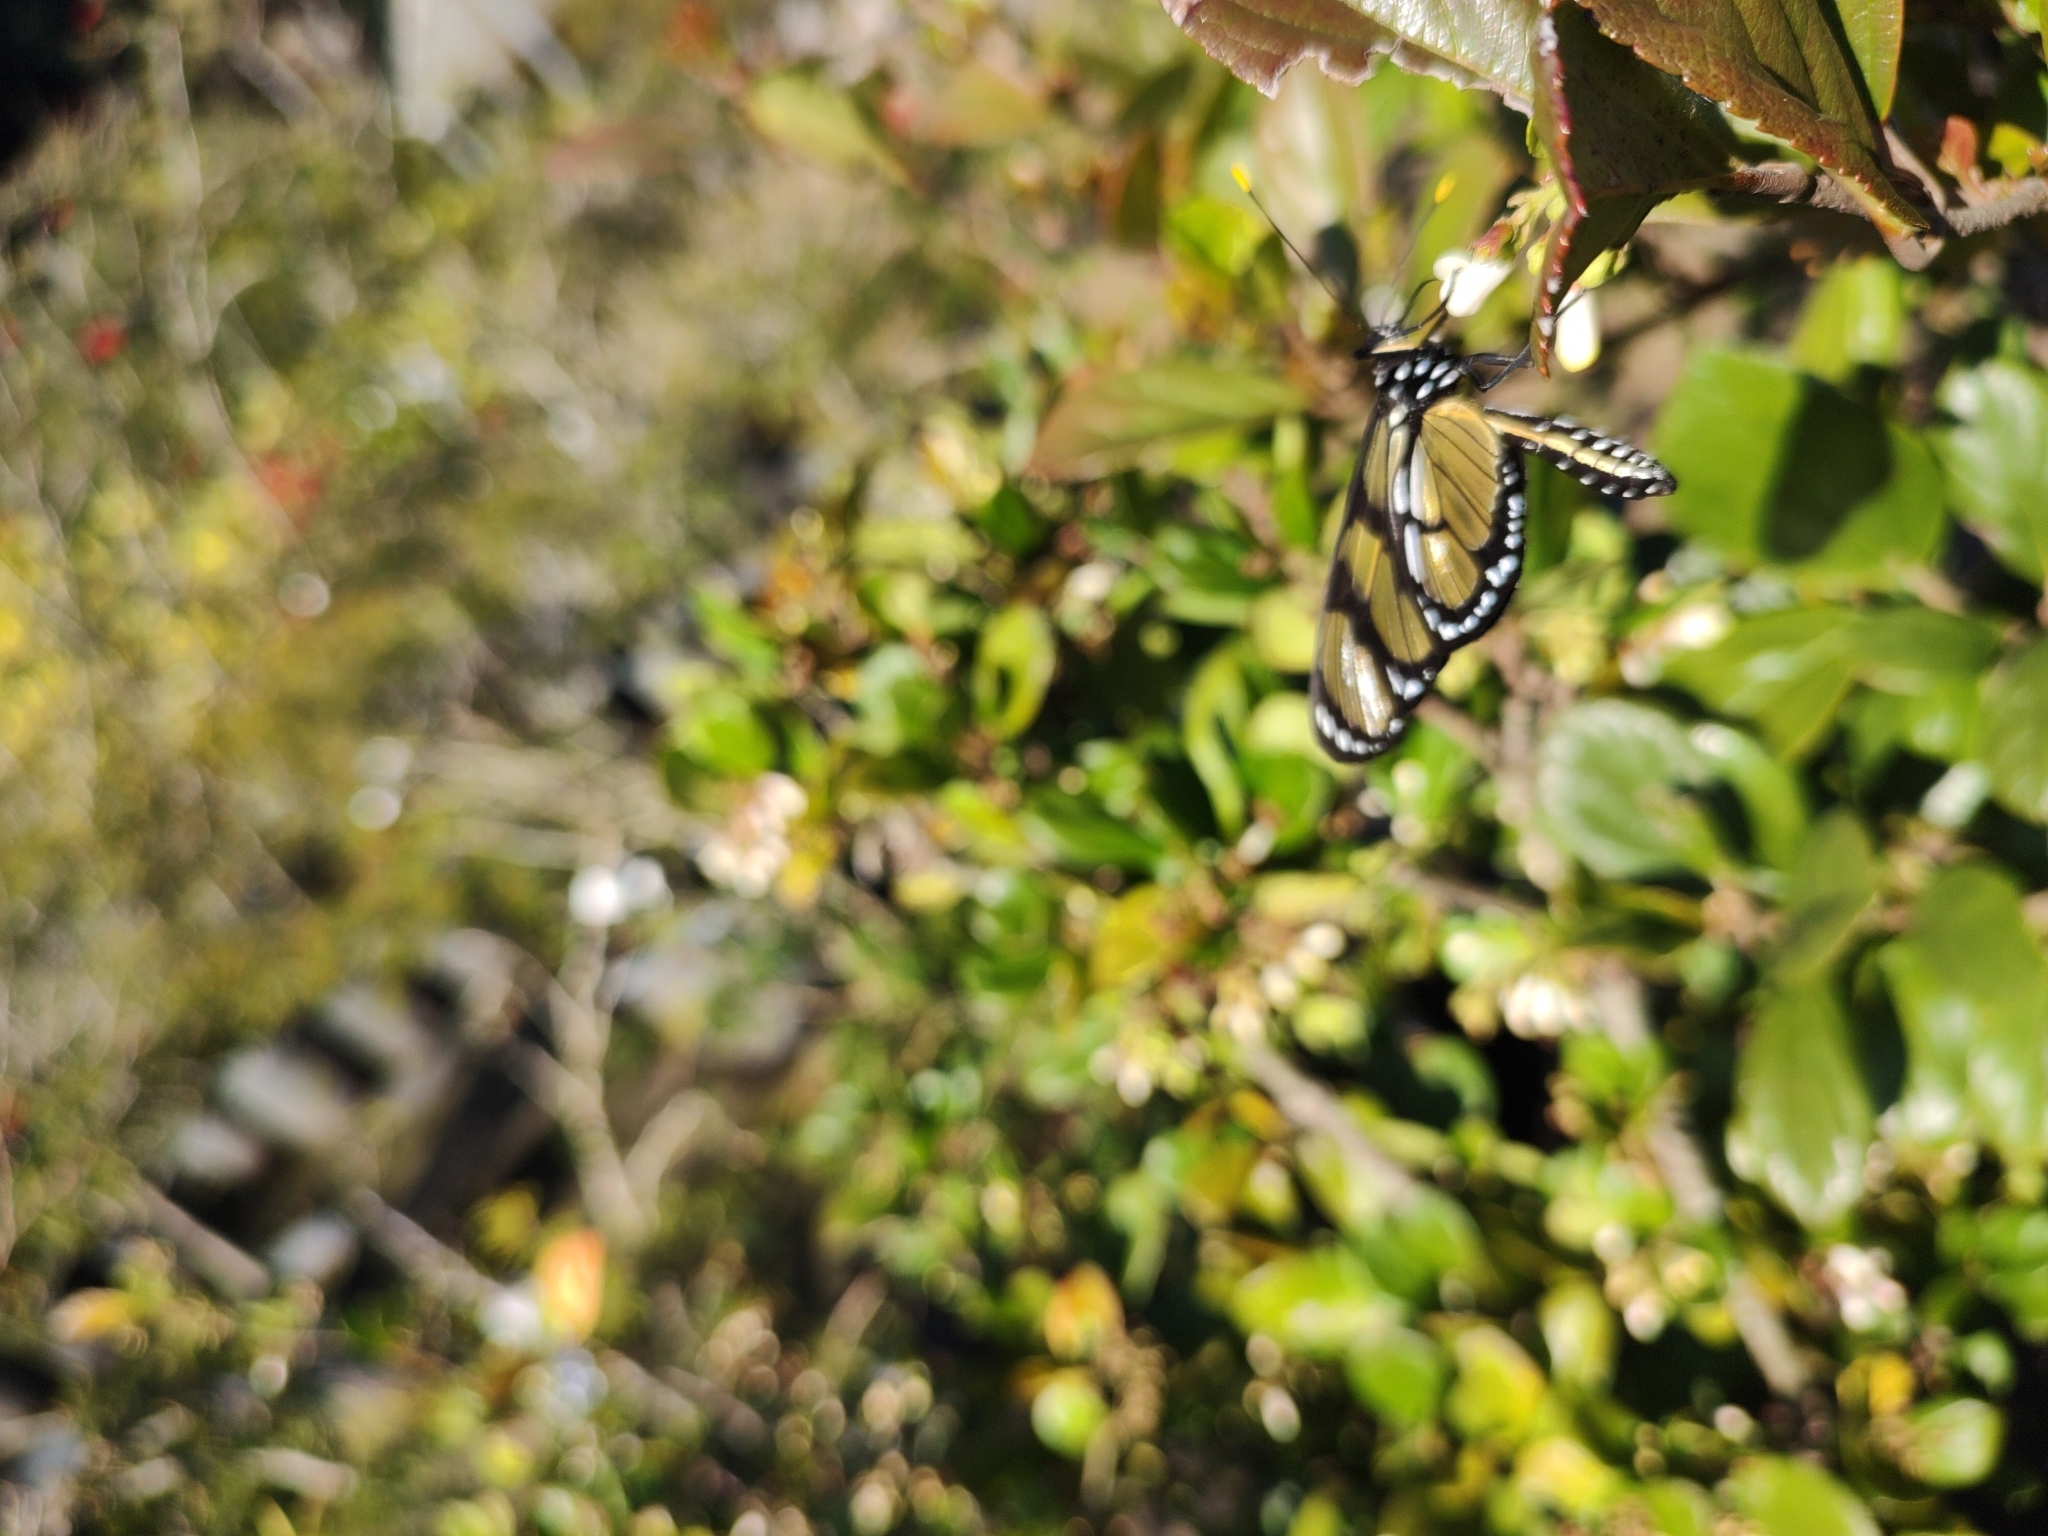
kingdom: Animalia
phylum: Arthropoda
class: Insecta
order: Lepidoptera
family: Nymphalidae
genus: Methona
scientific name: Methona themisto
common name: Themisto amberwing
